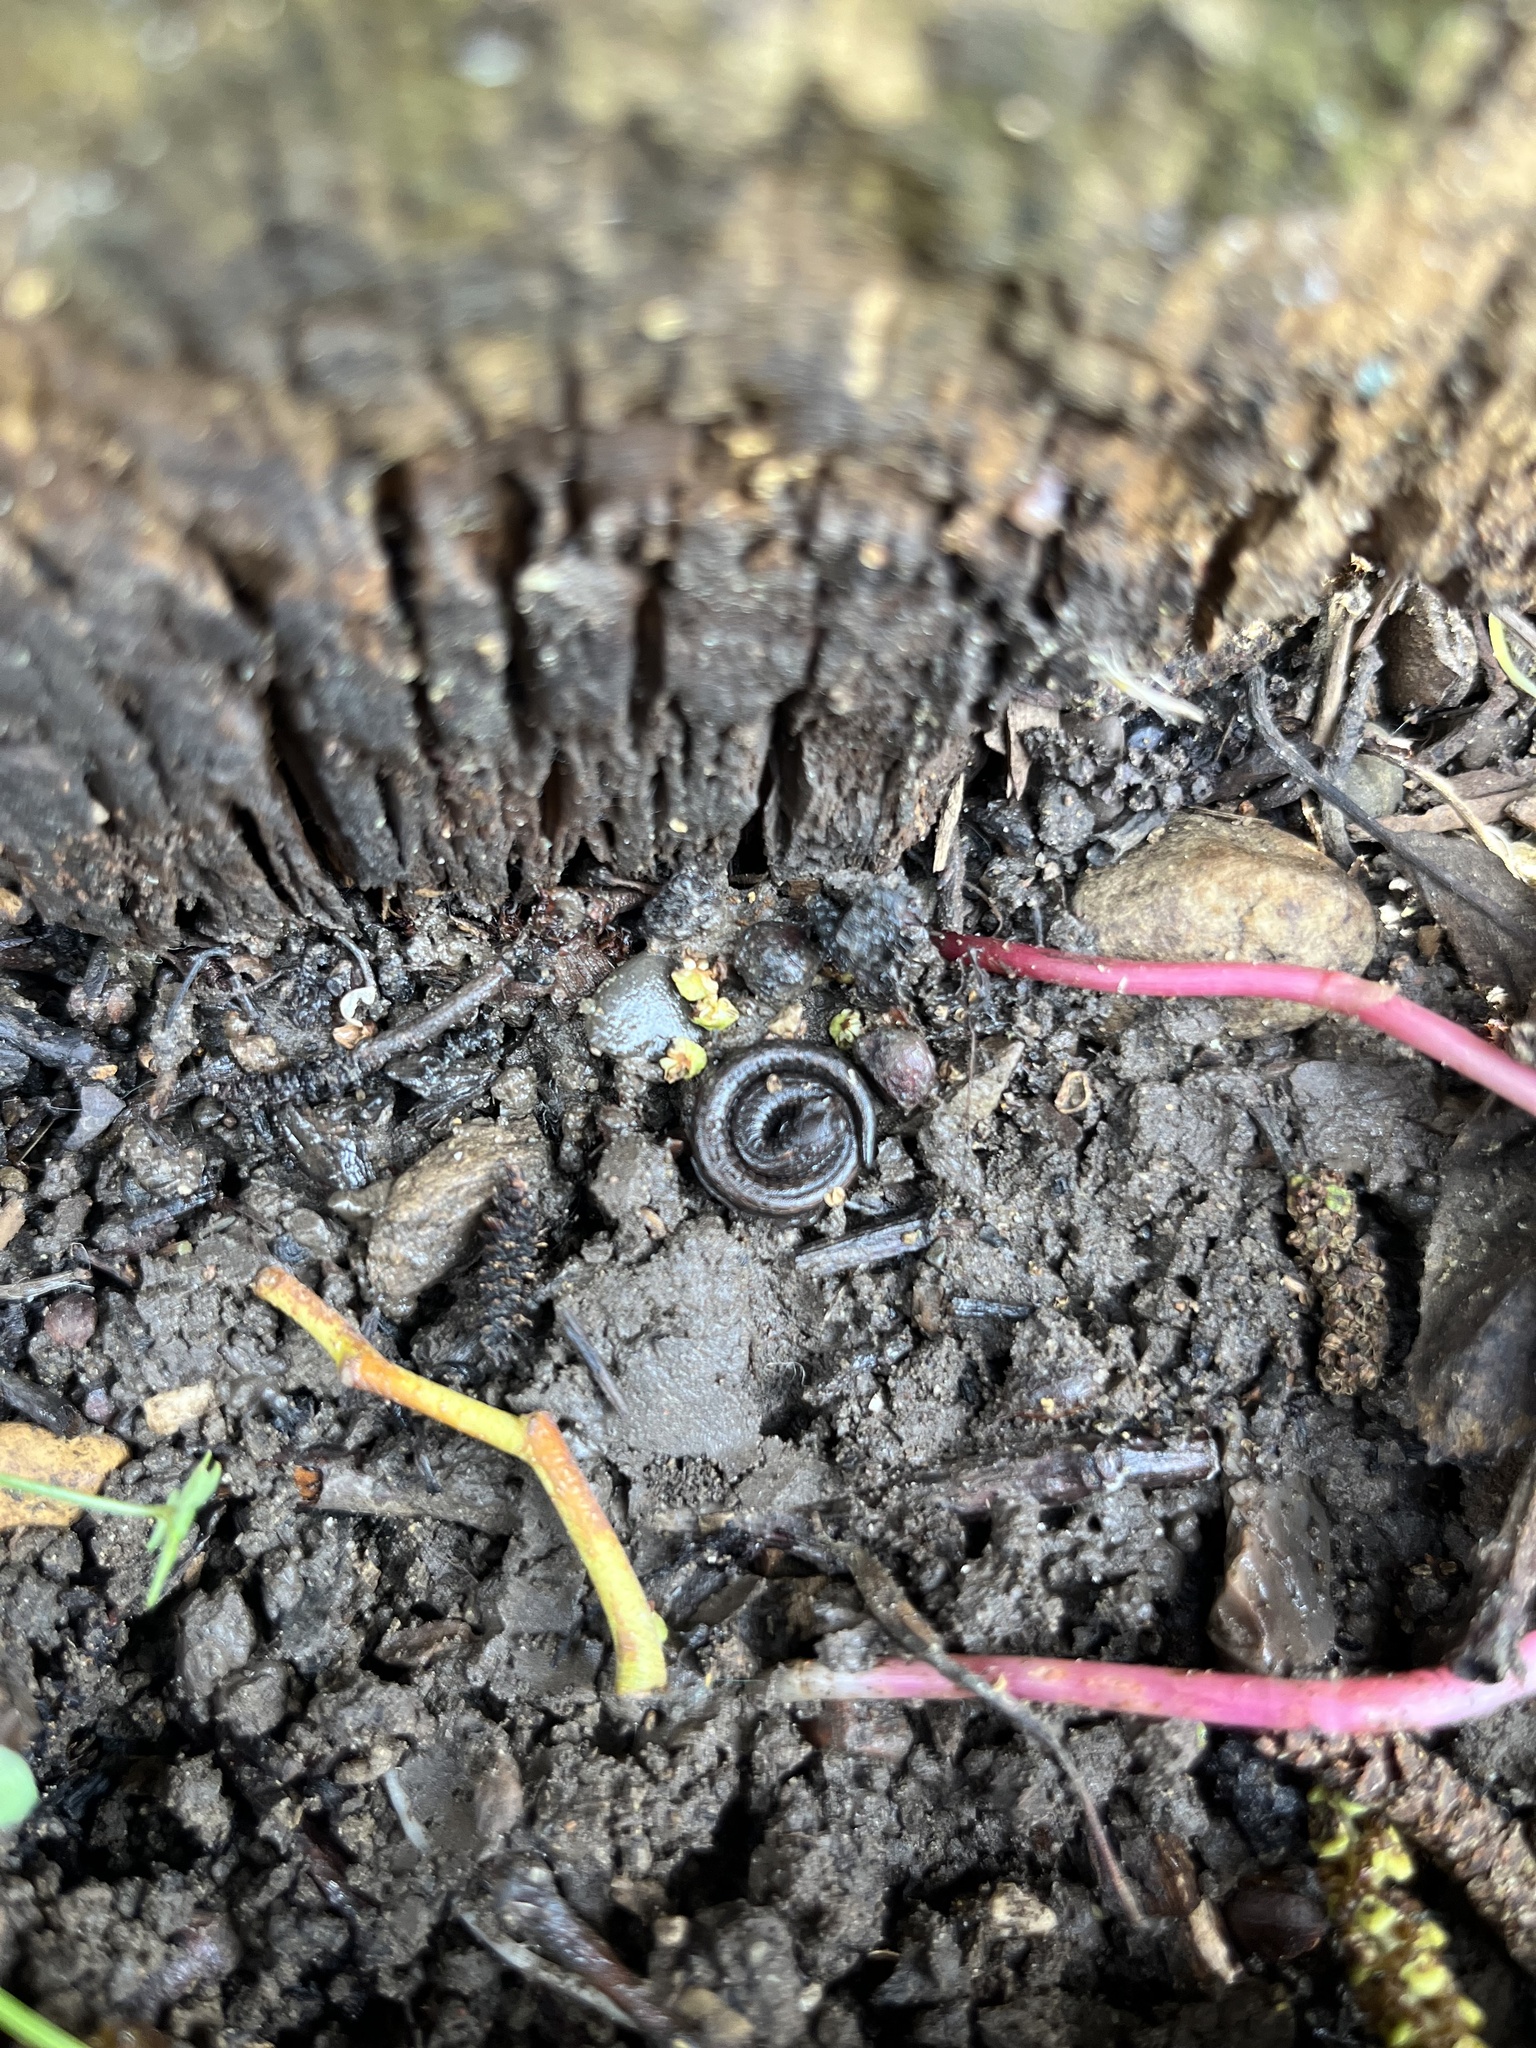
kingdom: Animalia
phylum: Chordata
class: Amphibia
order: Caudata
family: Plethodontidae
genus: Batrachoseps
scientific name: Batrachoseps nigriventris
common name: Black-bellied slender salamander
